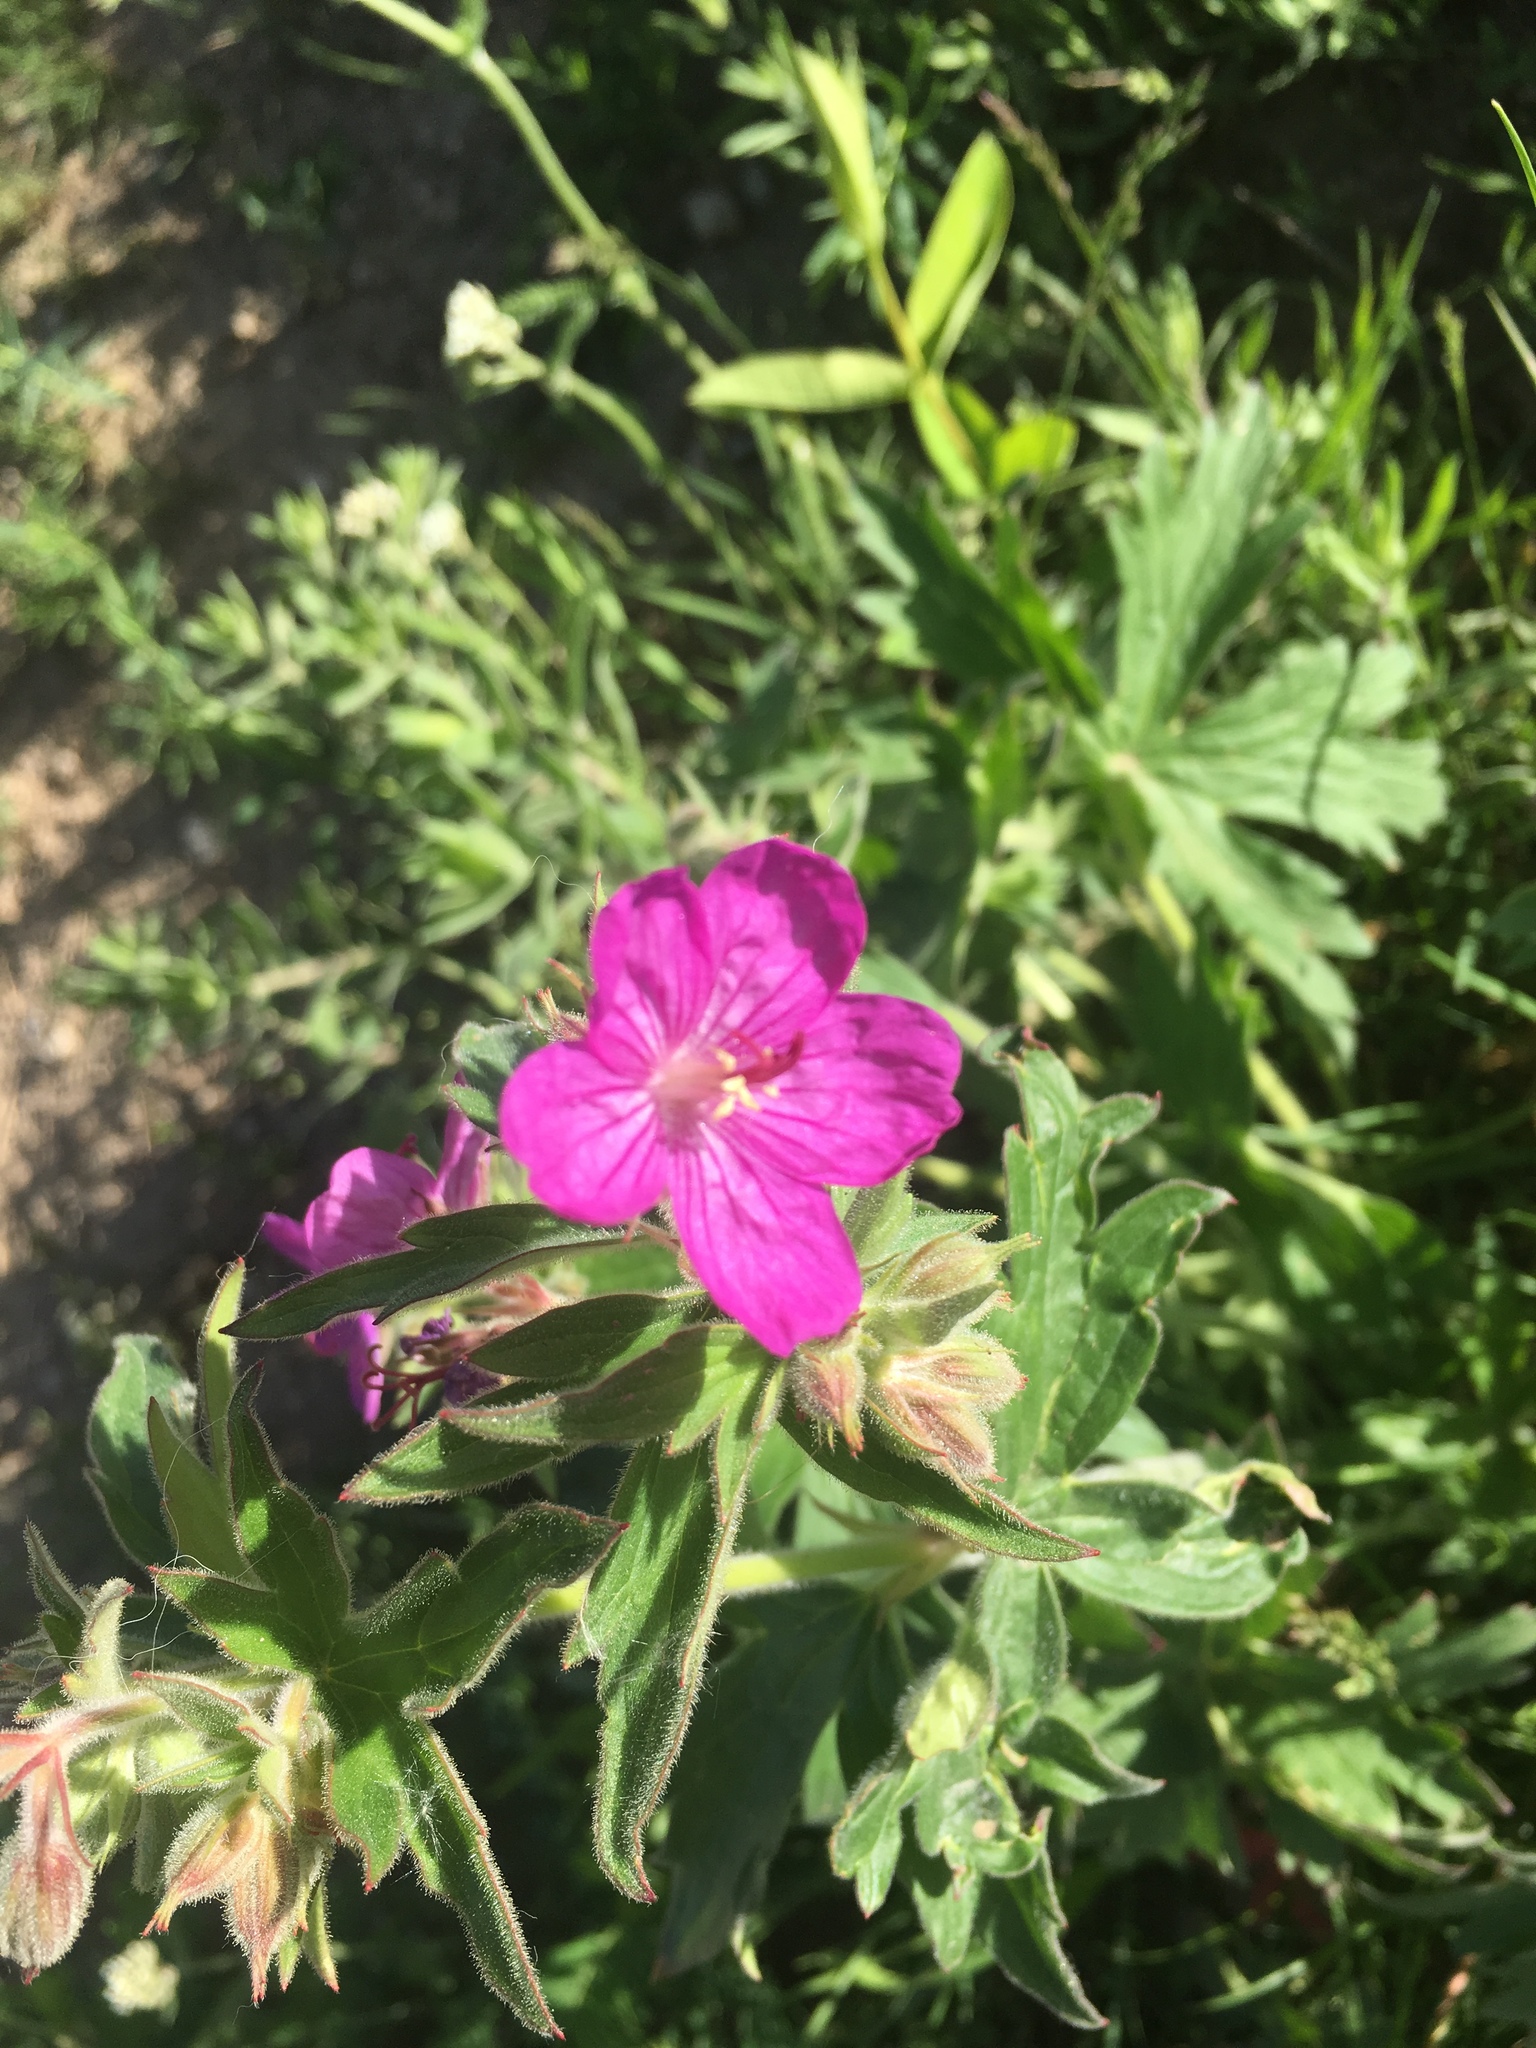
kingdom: Plantae
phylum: Tracheophyta
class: Magnoliopsida
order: Geraniales
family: Geraniaceae
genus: Geranium
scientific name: Geranium viscosissimum
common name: Purple geranium
